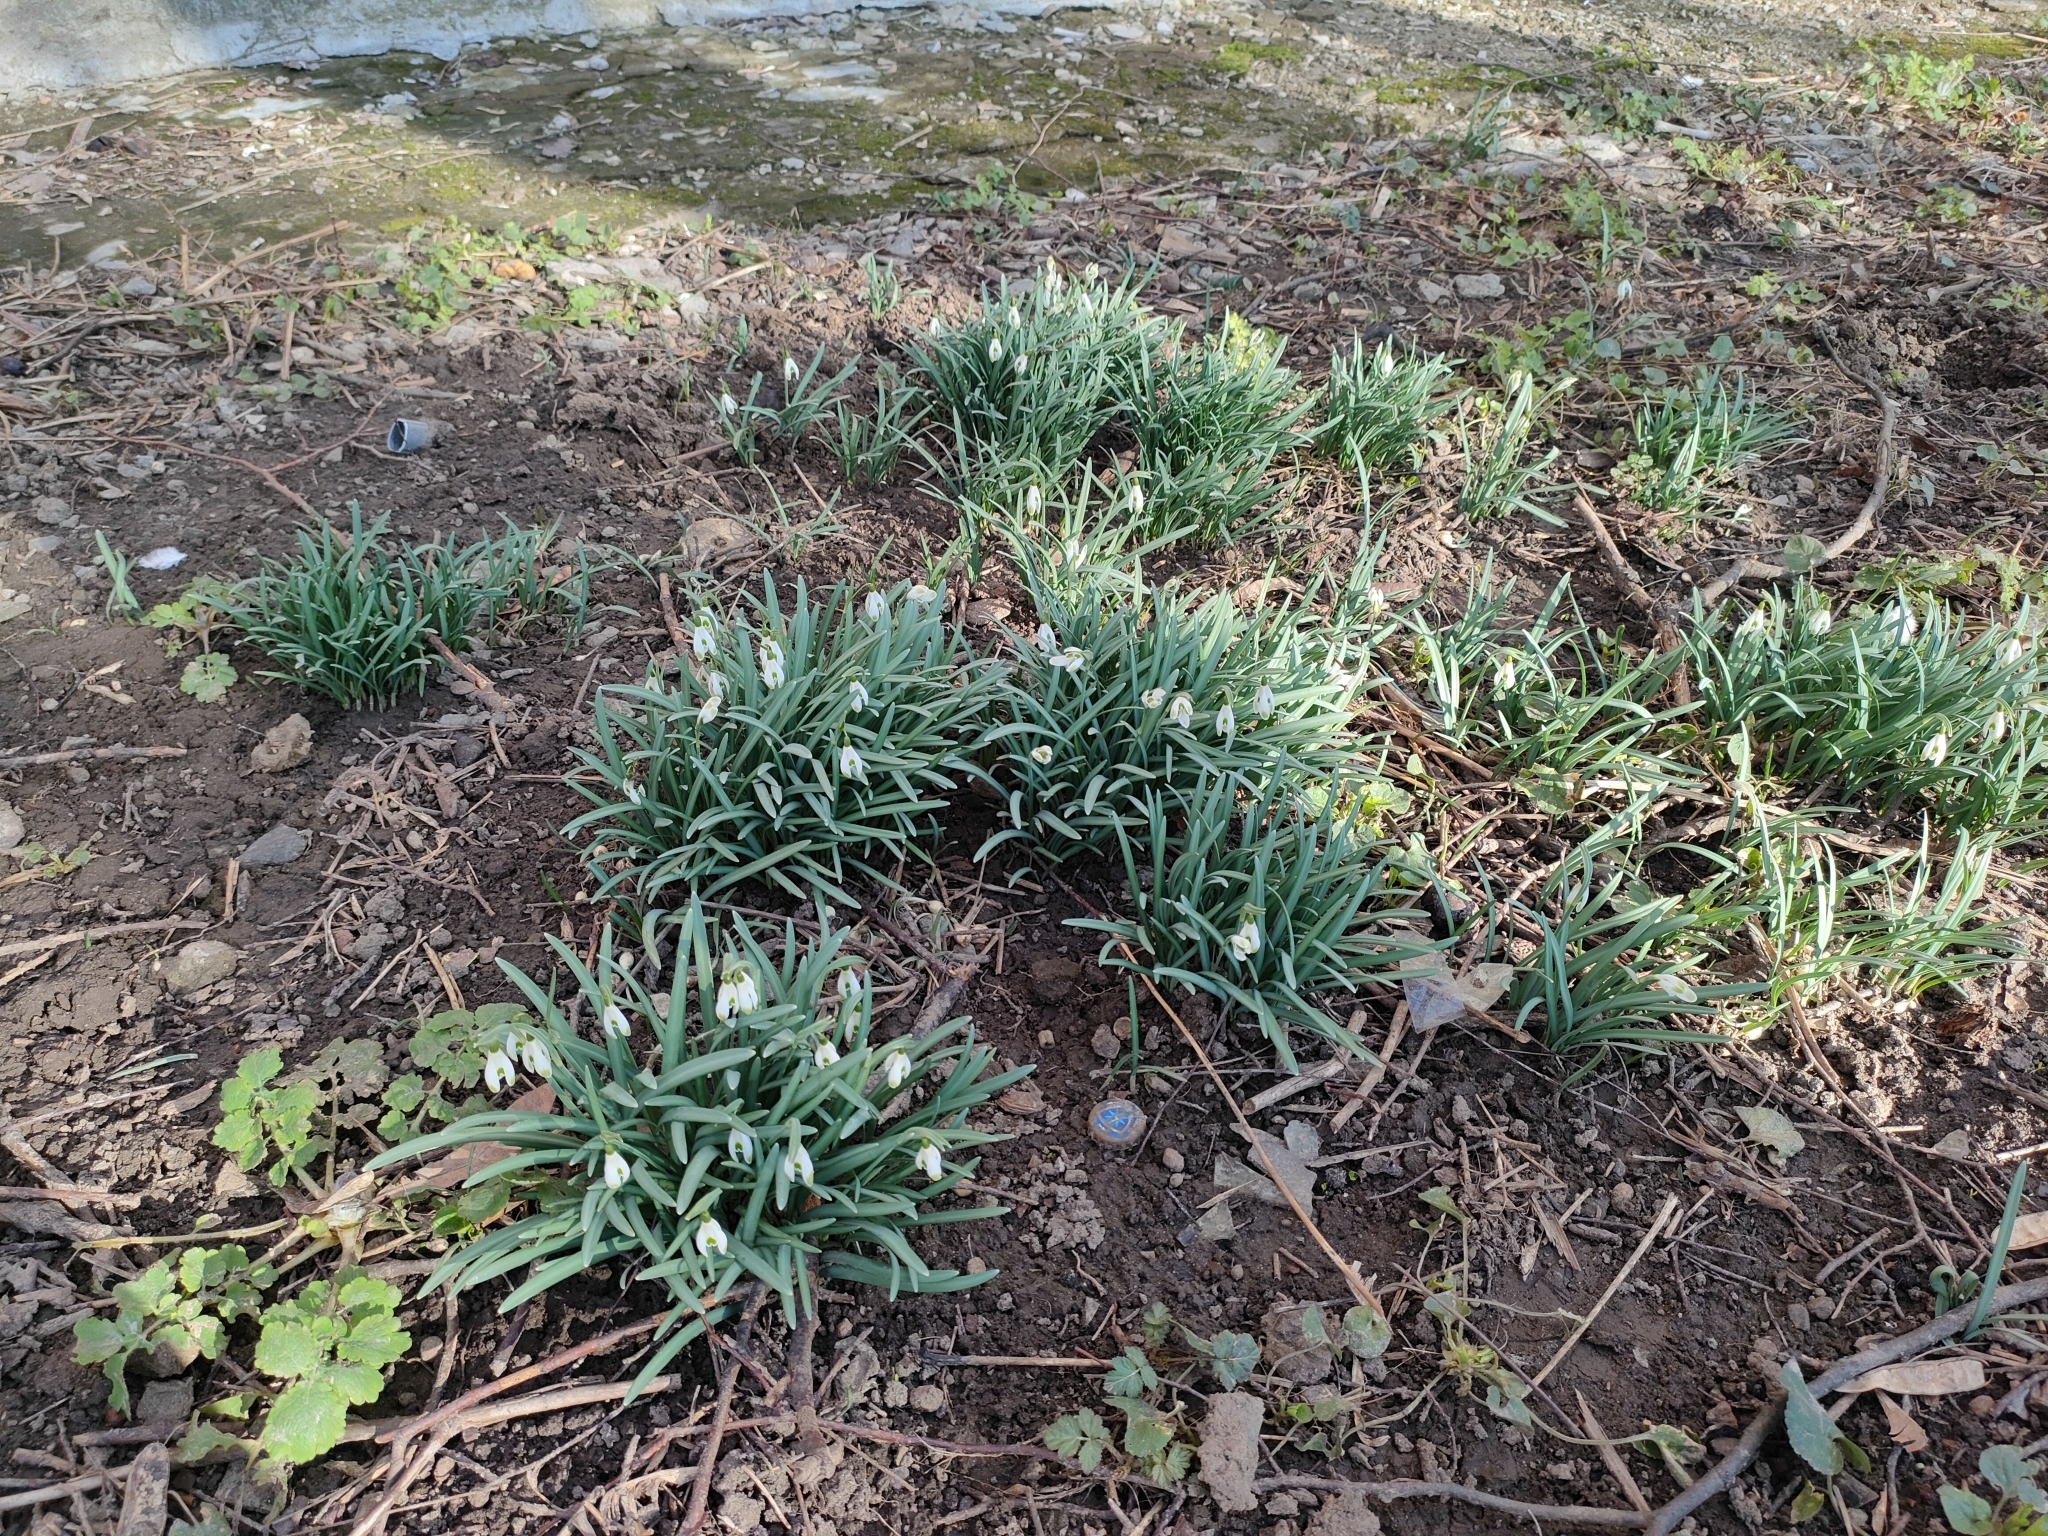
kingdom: Plantae
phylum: Tracheophyta
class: Liliopsida
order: Asparagales
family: Amaryllidaceae
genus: Galanthus
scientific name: Galanthus nivalis
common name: Snowdrop
